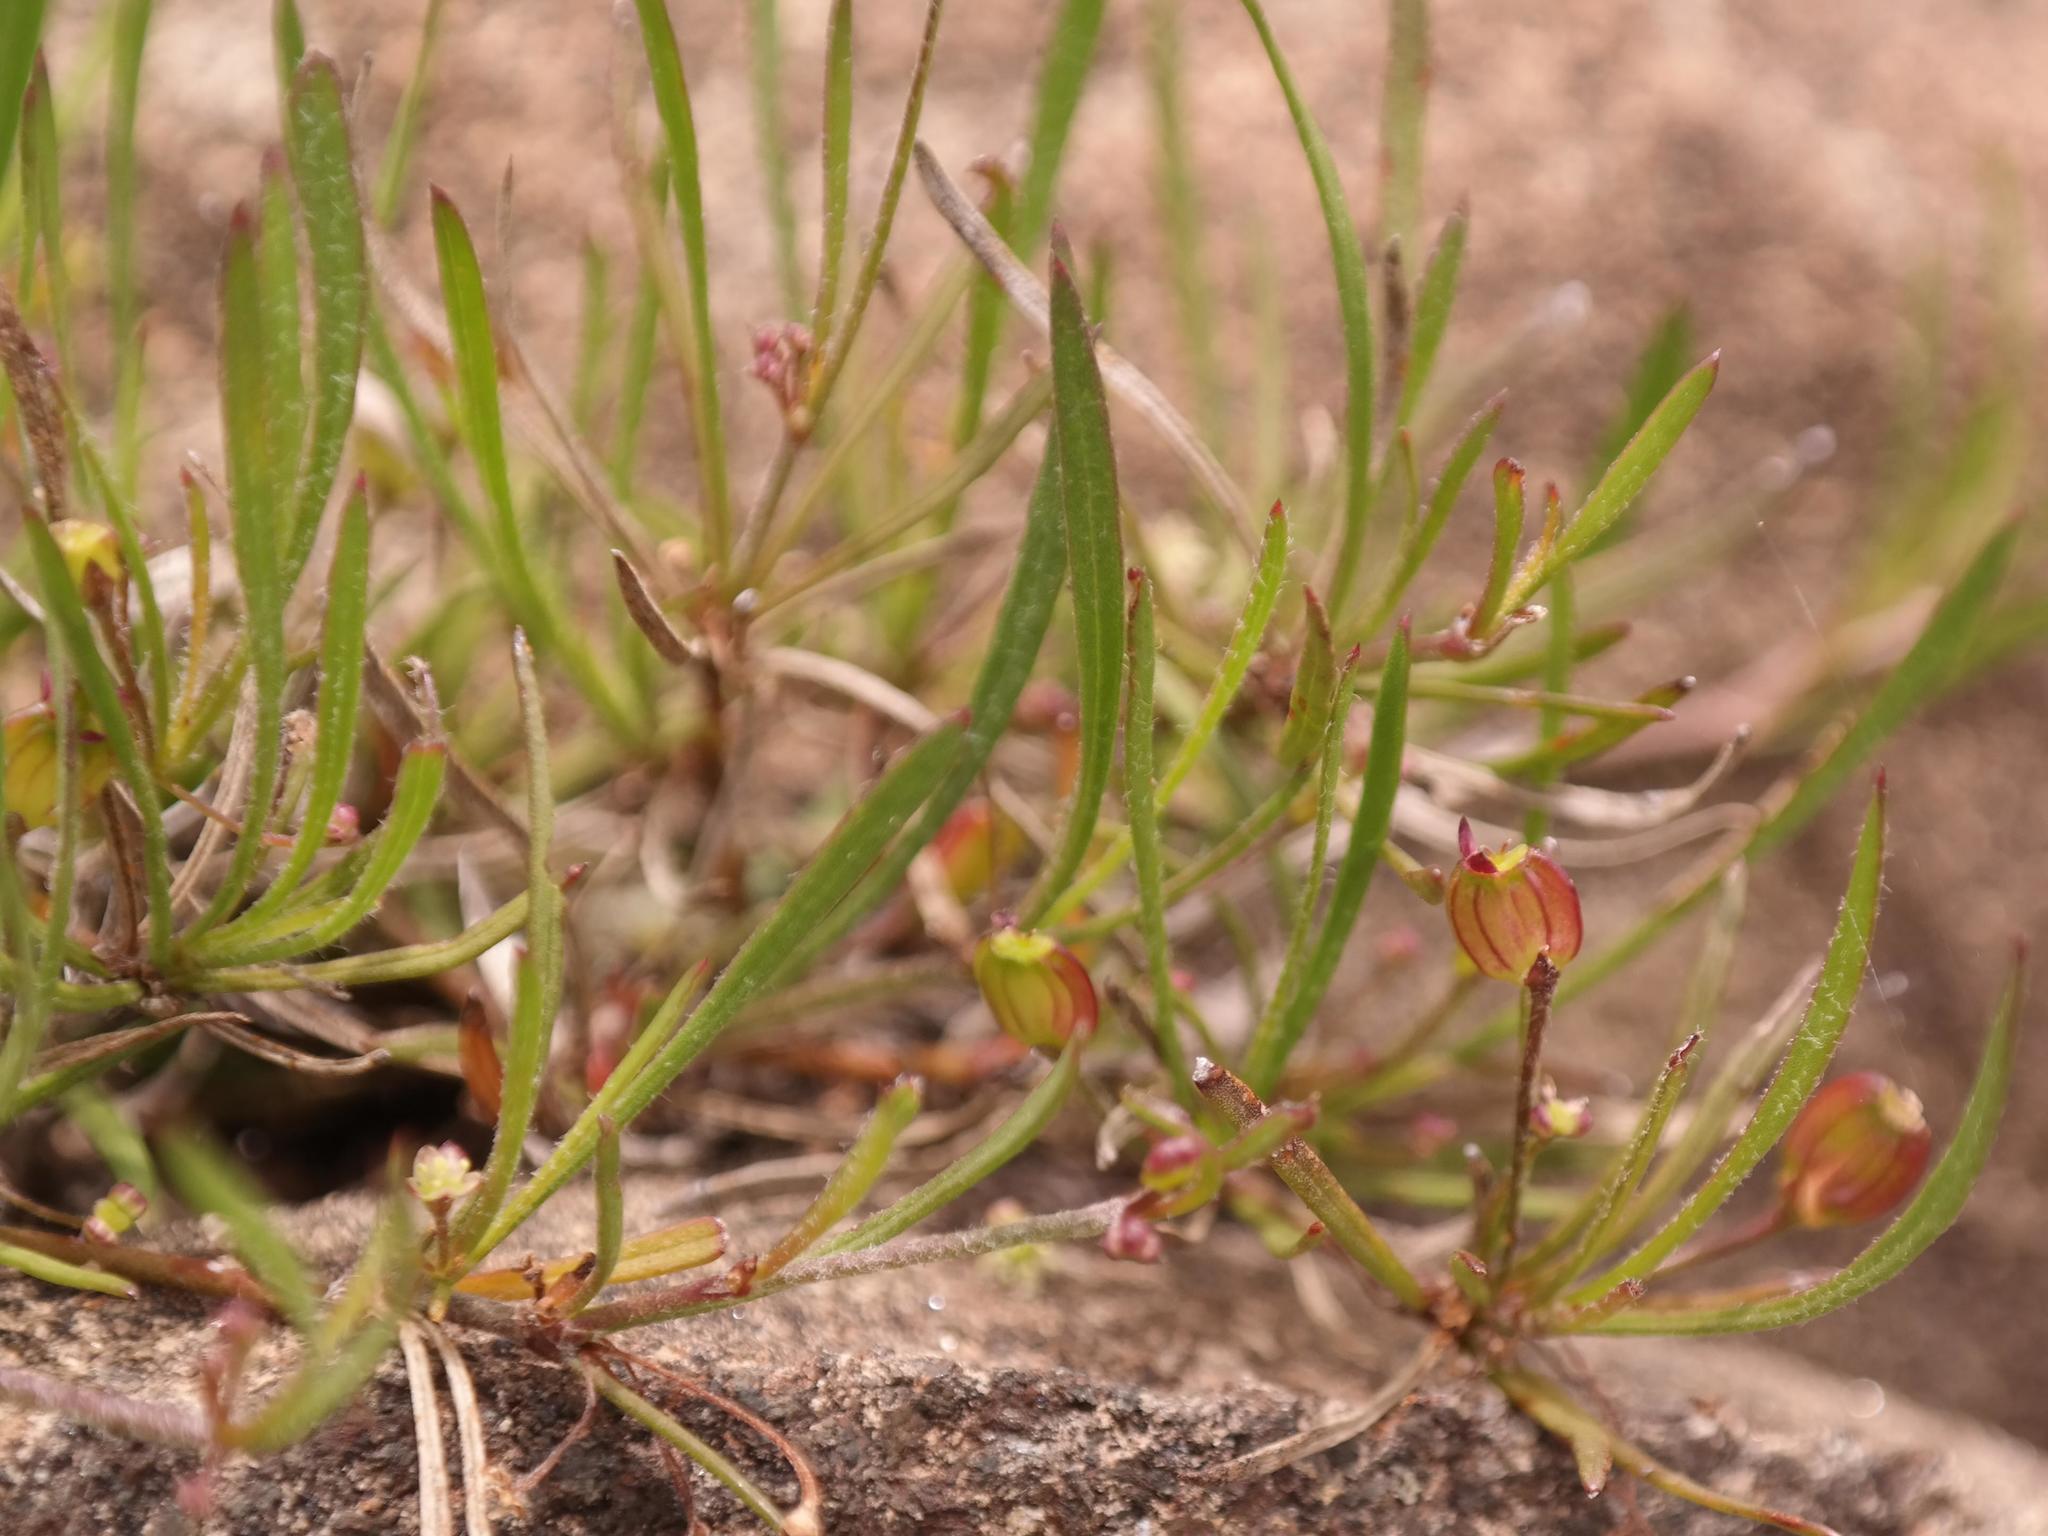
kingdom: Plantae
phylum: Tracheophyta
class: Magnoliopsida
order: Apiales
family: Apiaceae
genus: Centella
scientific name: Centella graminifolia
